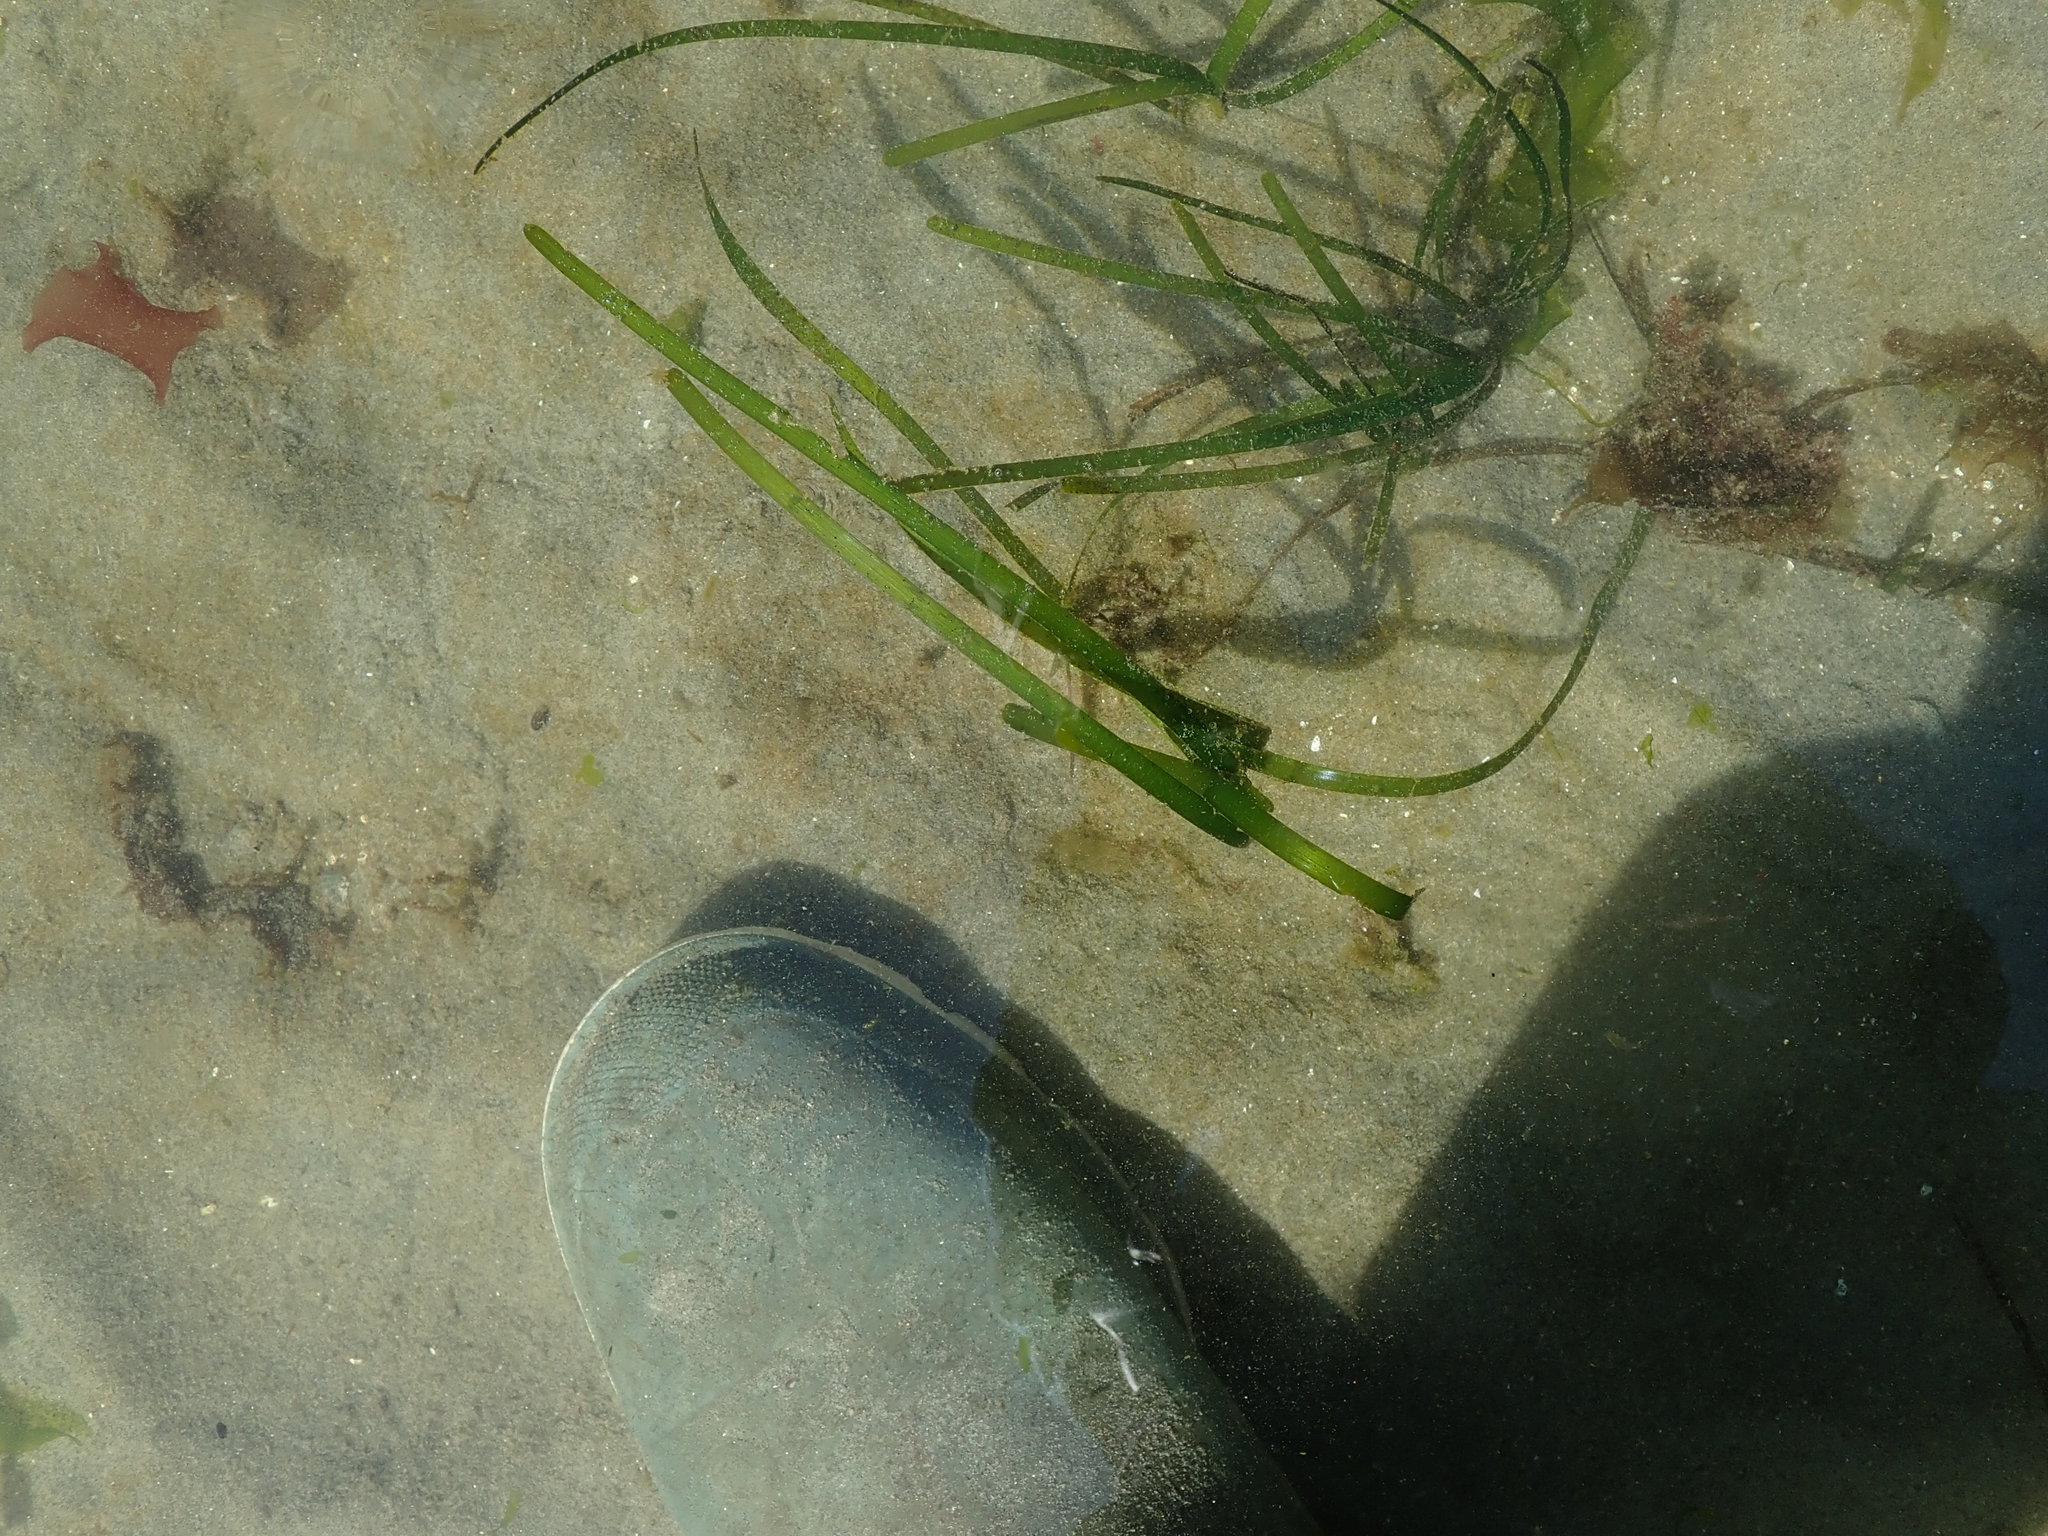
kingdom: Plantae
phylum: Tracheophyta
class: Liliopsida
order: Alismatales
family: Zosteraceae
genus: Zostera
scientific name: Zostera marina
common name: Eelgrass
